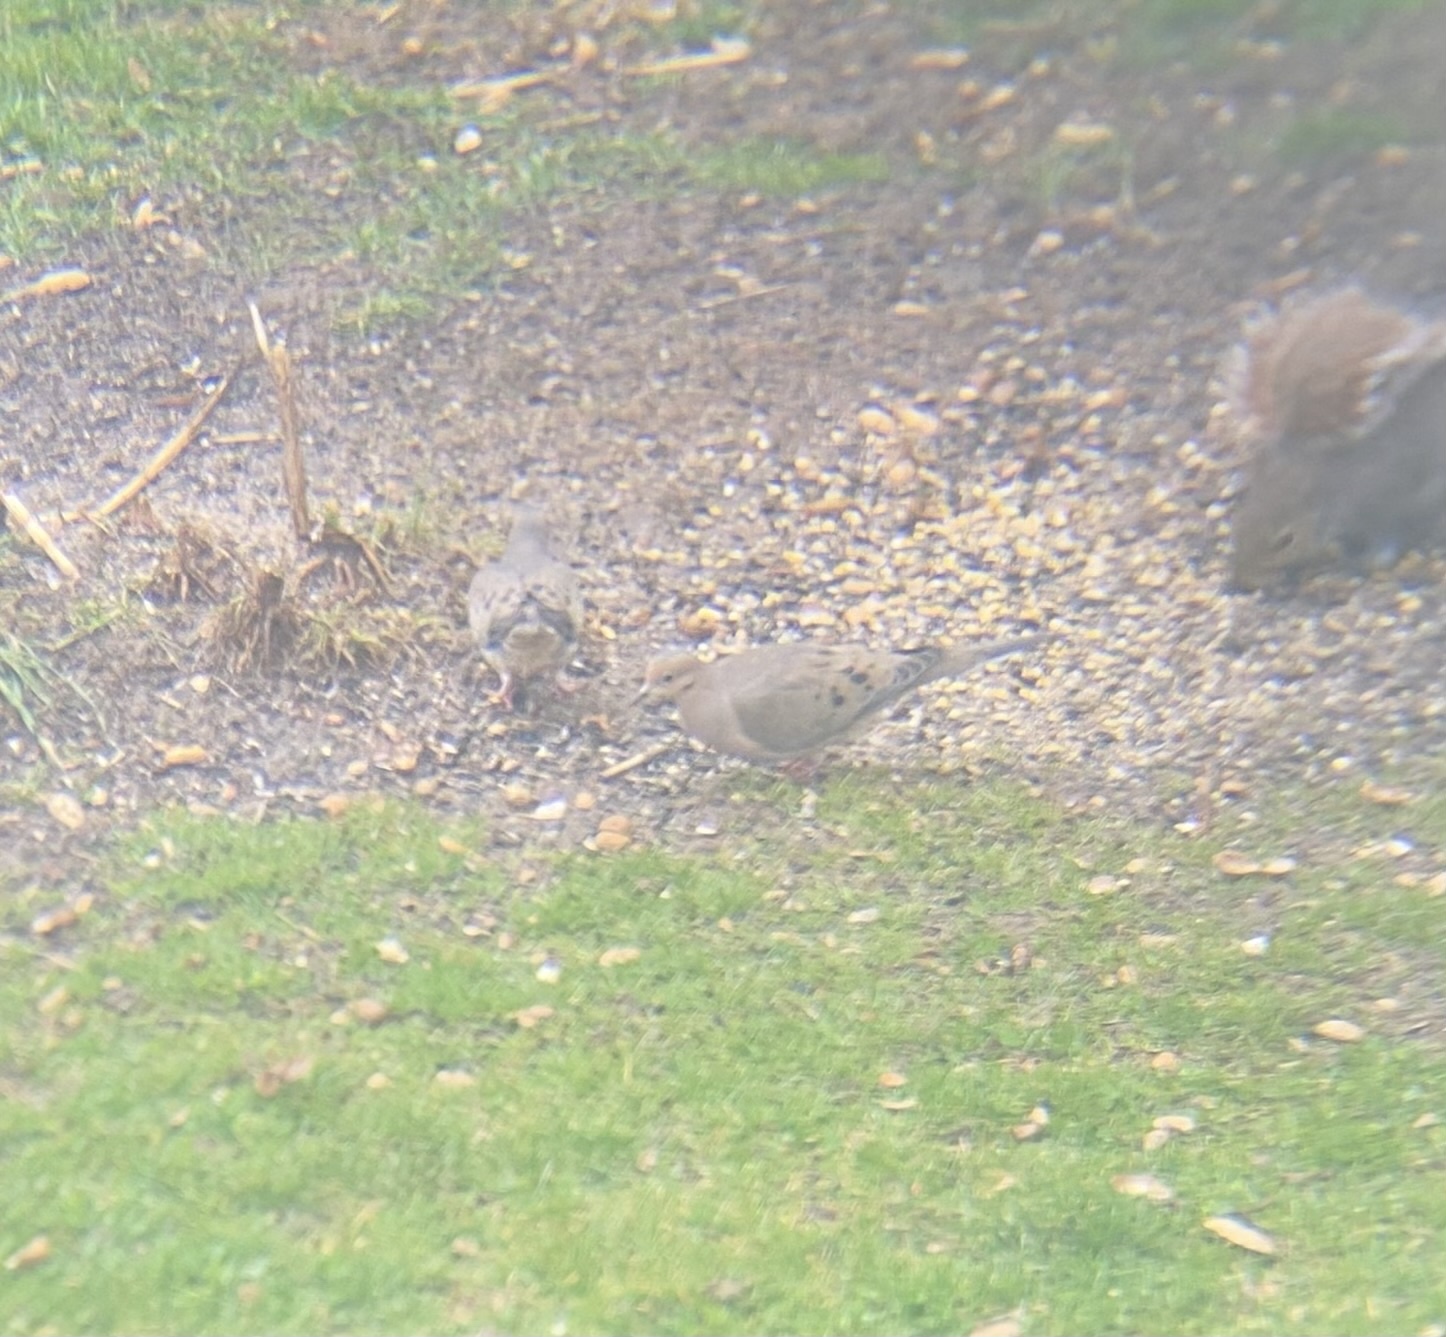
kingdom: Animalia
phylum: Chordata
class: Aves
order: Columbiformes
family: Columbidae
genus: Zenaida
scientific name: Zenaida macroura
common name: Mourning dove
